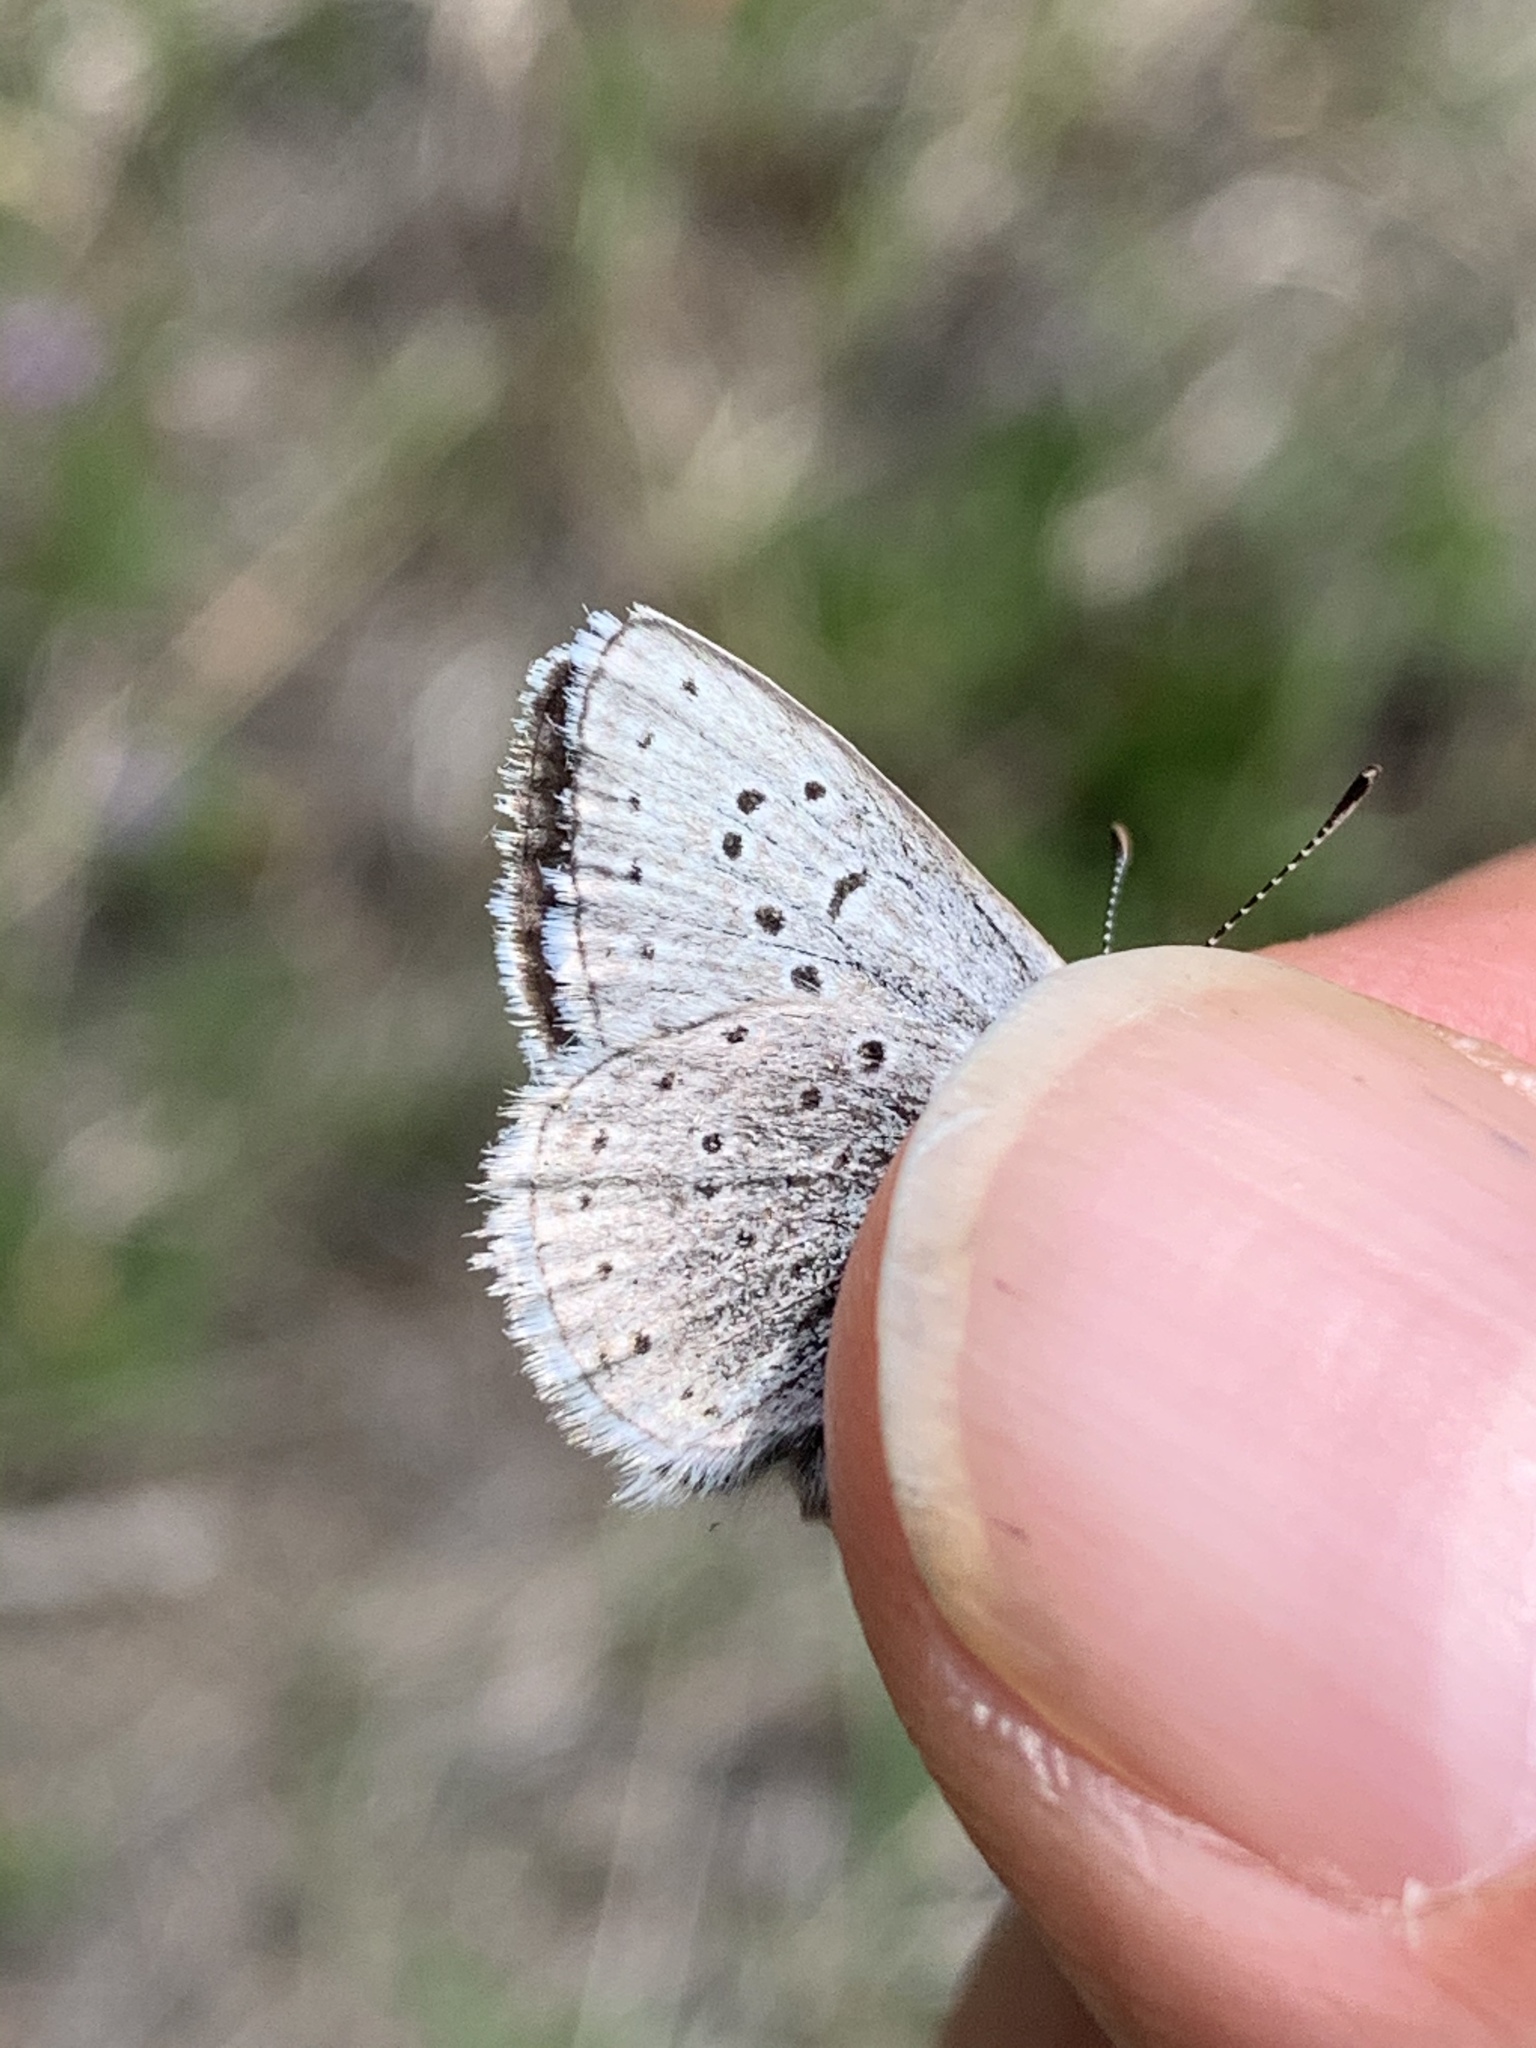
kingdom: Animalia
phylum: Arthropoda
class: Insecta
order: Lepidoptera
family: Lycaenidae
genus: Icaricia
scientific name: Icaricia saepiolus
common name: Greenish blue
